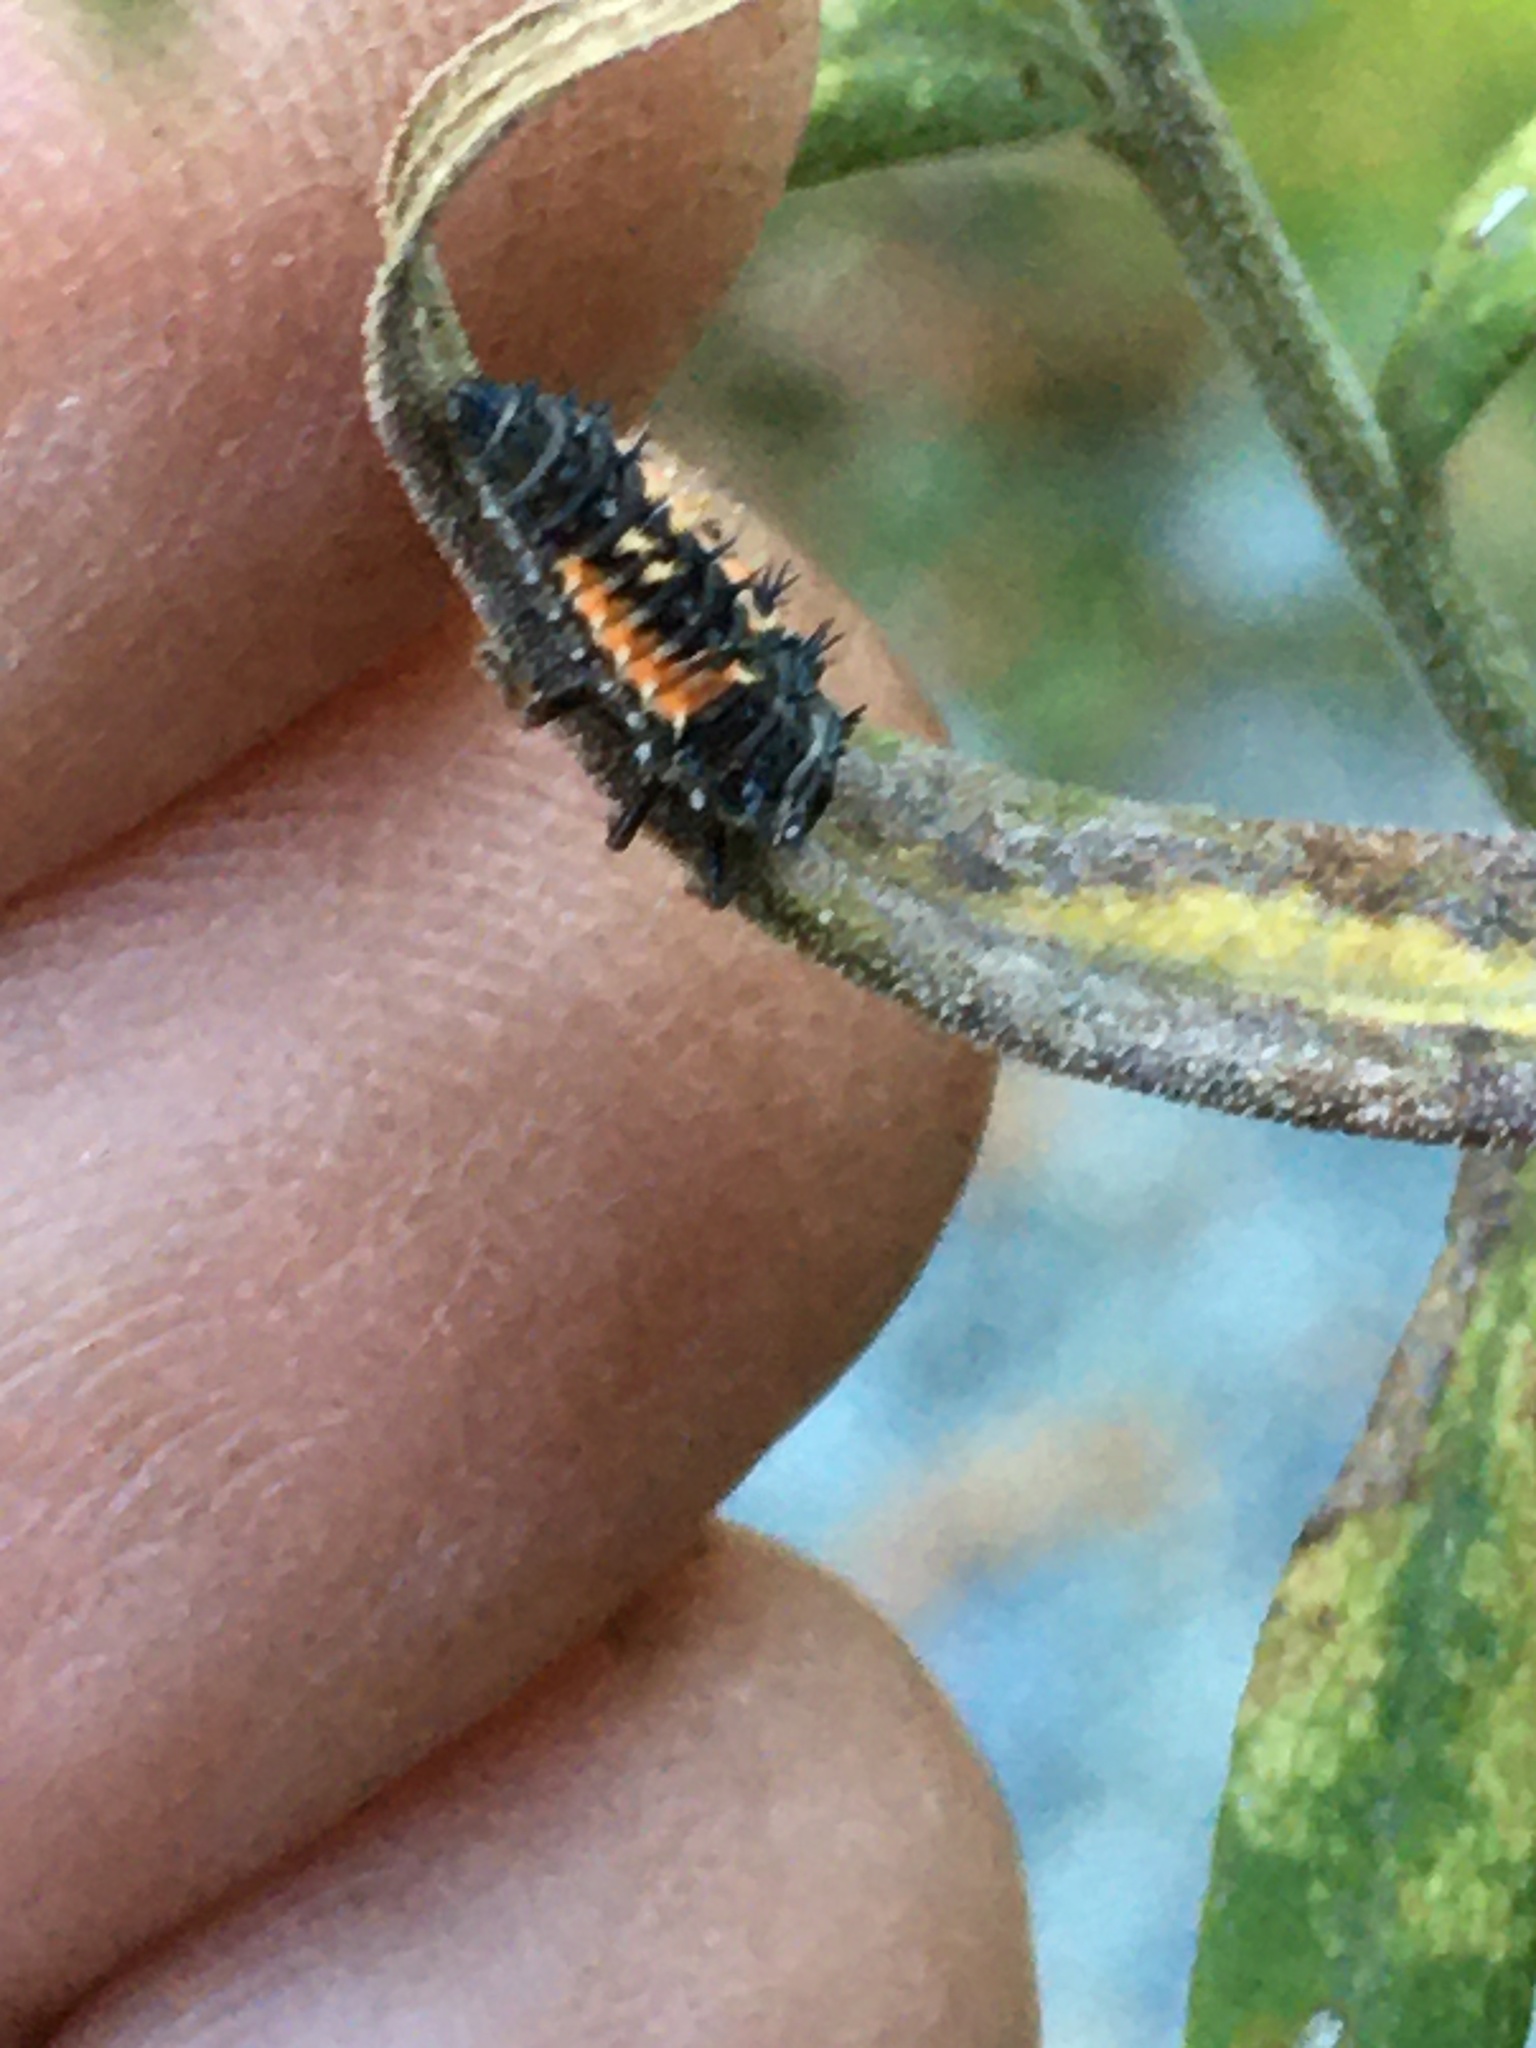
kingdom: Animalia
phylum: Arthropoda
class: Insecta
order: Coleoptera
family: Coccinellidae
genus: Harmonia
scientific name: Harmonia axyridis
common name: Harlequin ladybird
